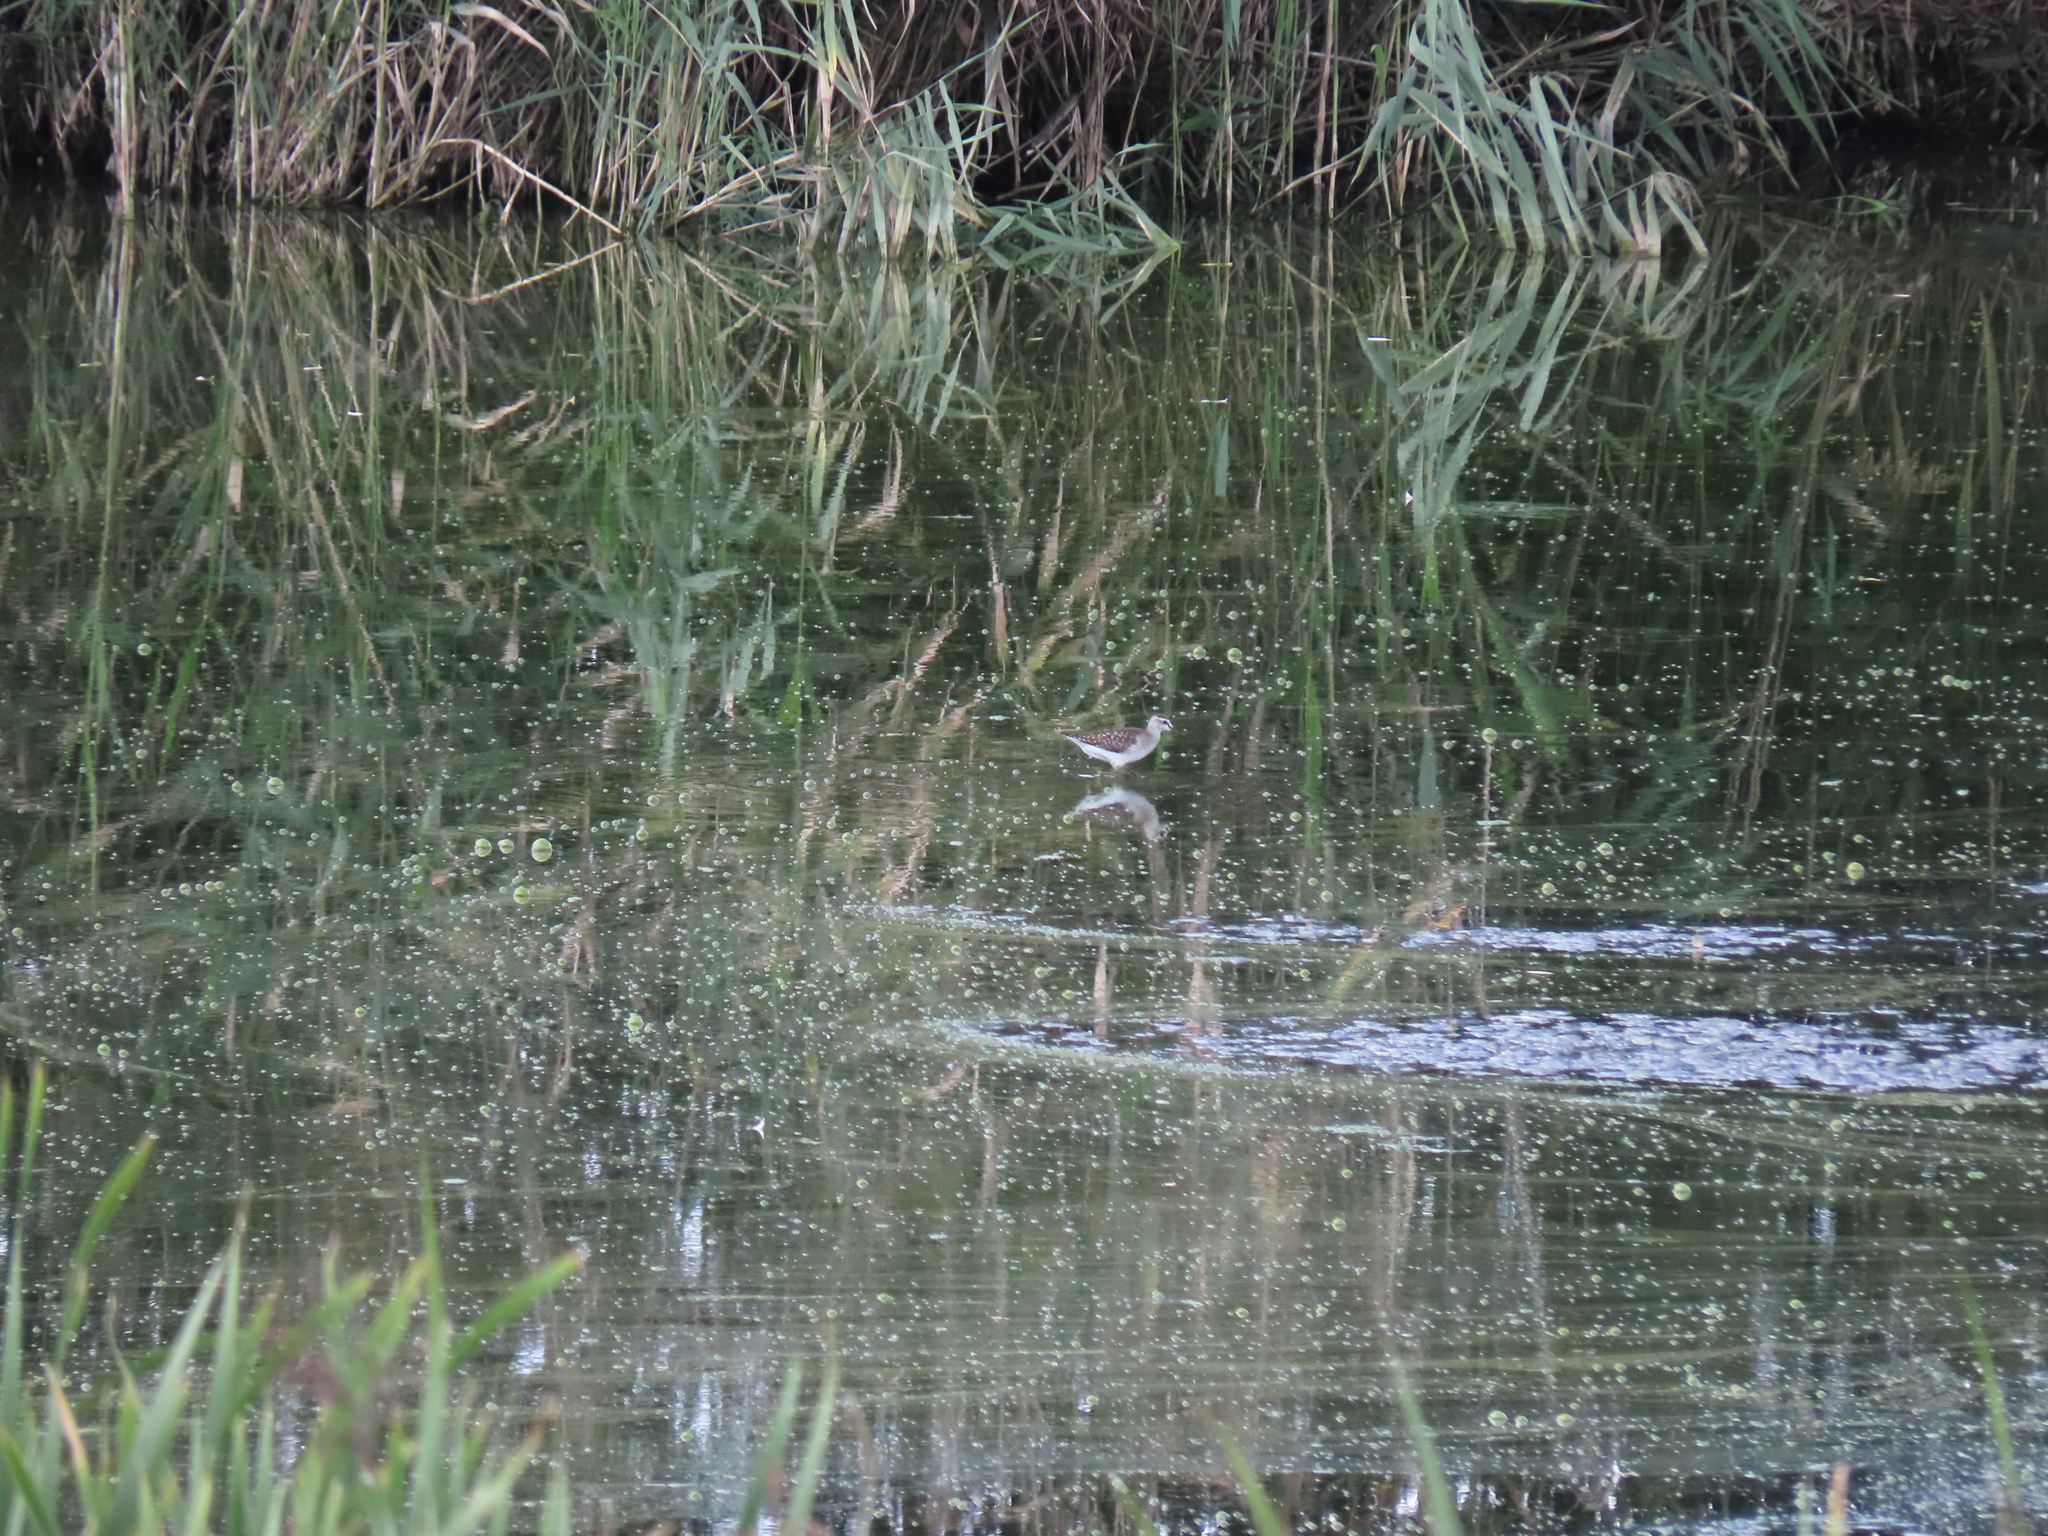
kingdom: Animalia
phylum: Chordata
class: Aves
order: Charadriiformes
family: Scolopacidae
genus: Tringa
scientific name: Tringa glareola
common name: Wood sandpiper
